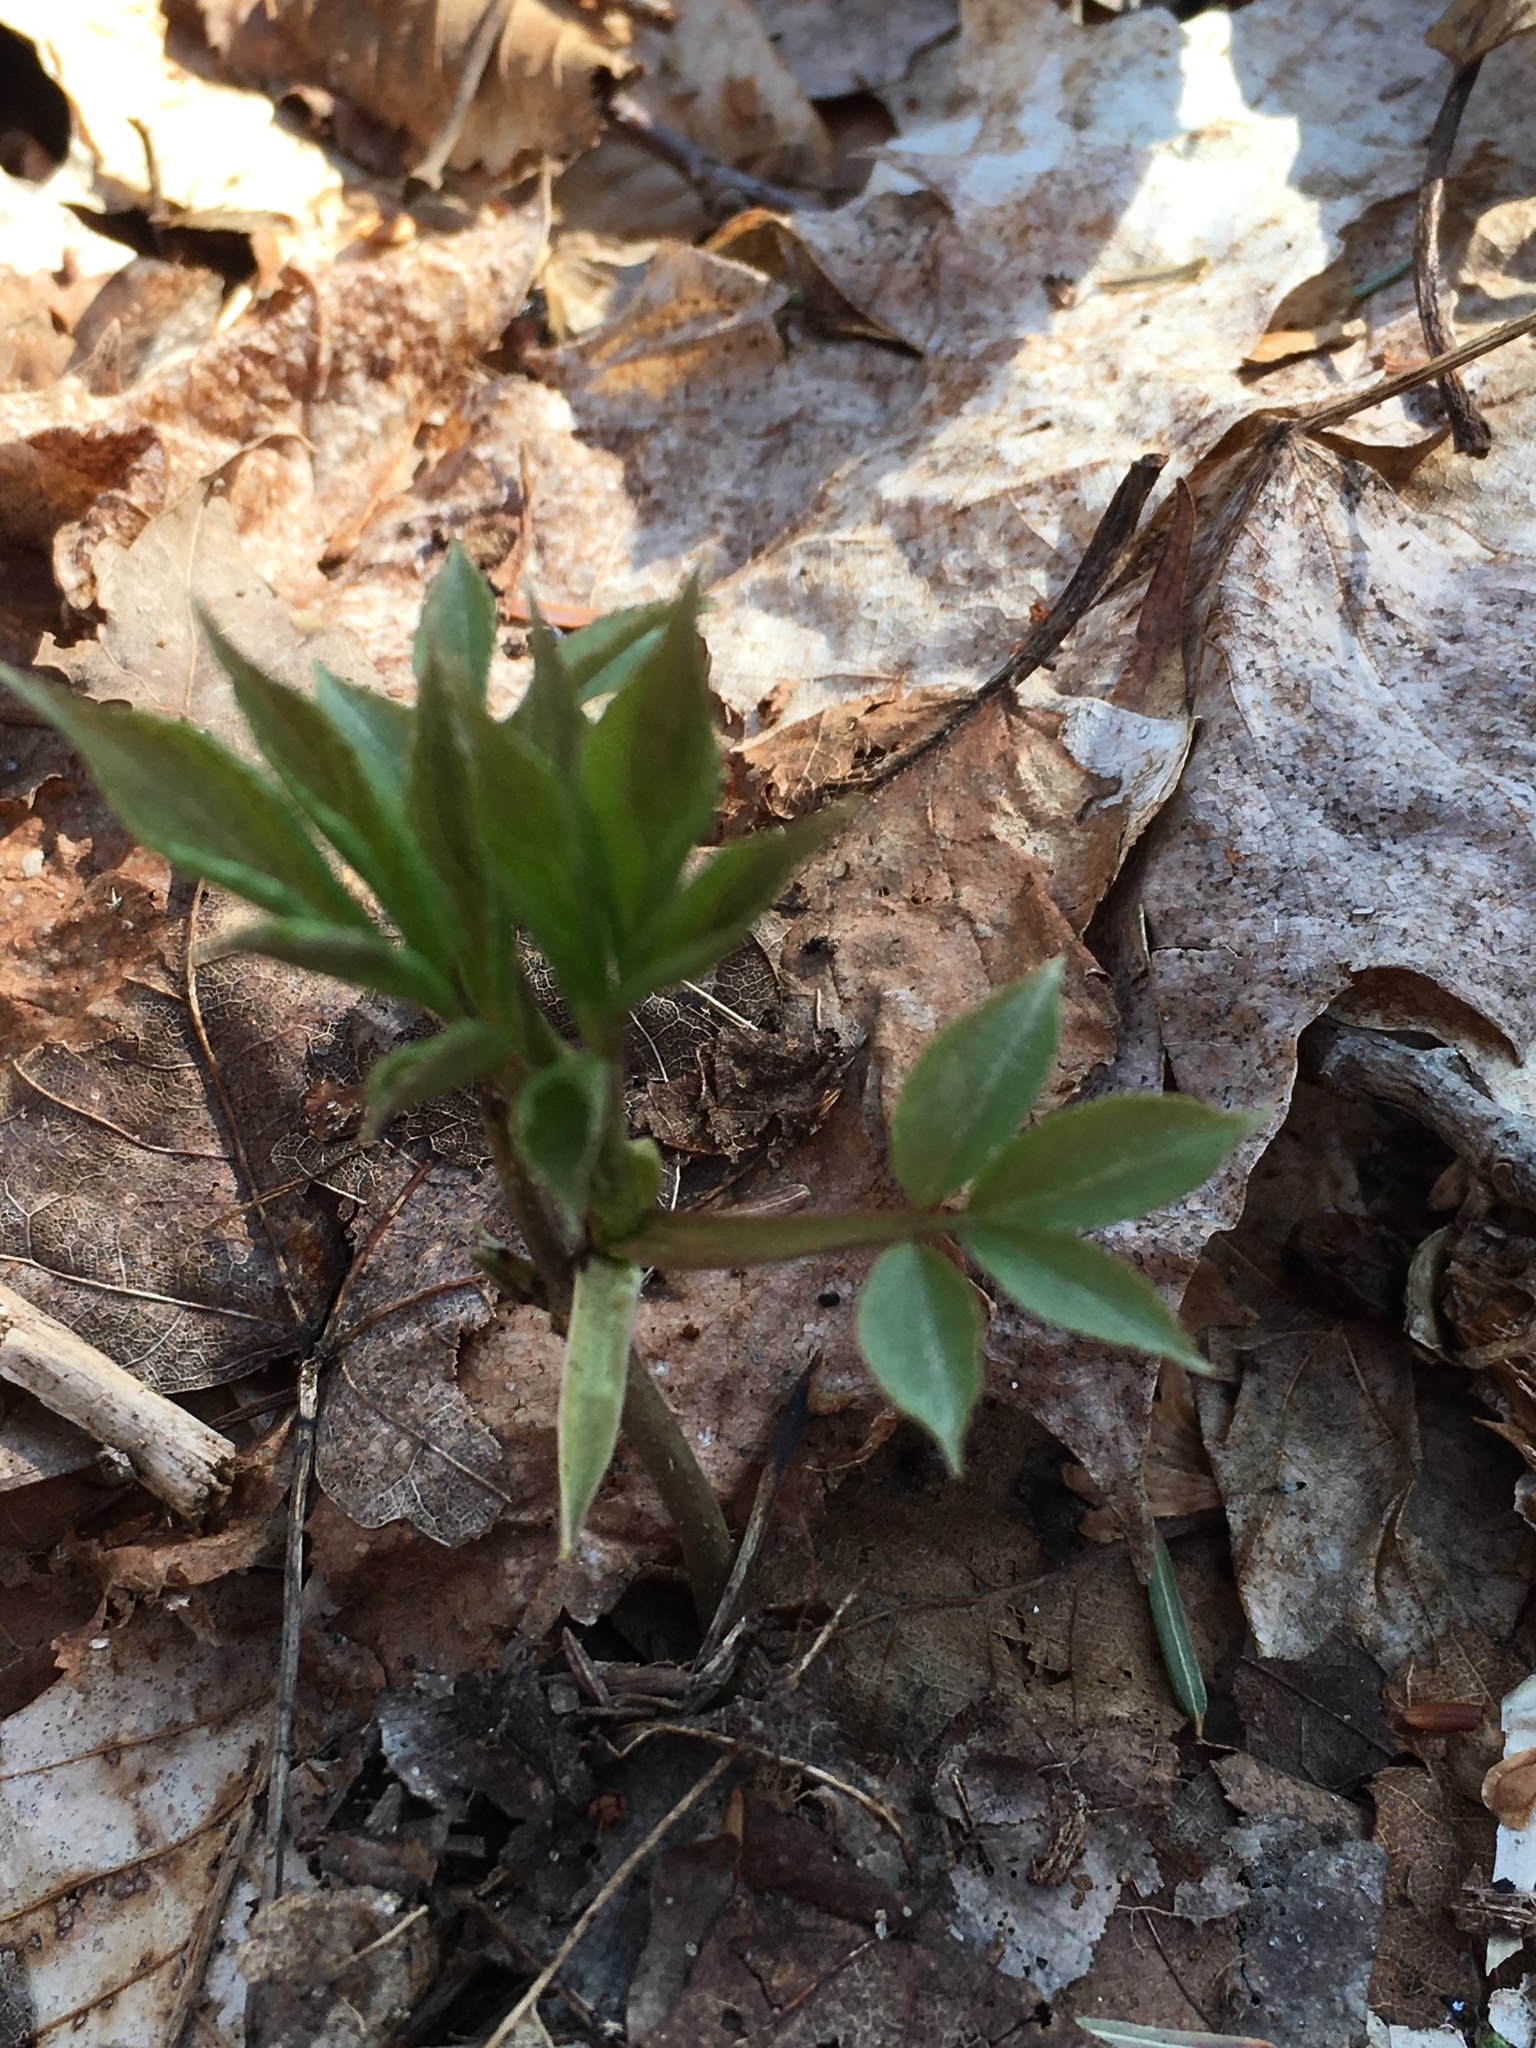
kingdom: Plantae
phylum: Tracheophyta
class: Magnoliopsida
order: Dipsacales
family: Viburnaceae
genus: Sambucus
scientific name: Sambucus
